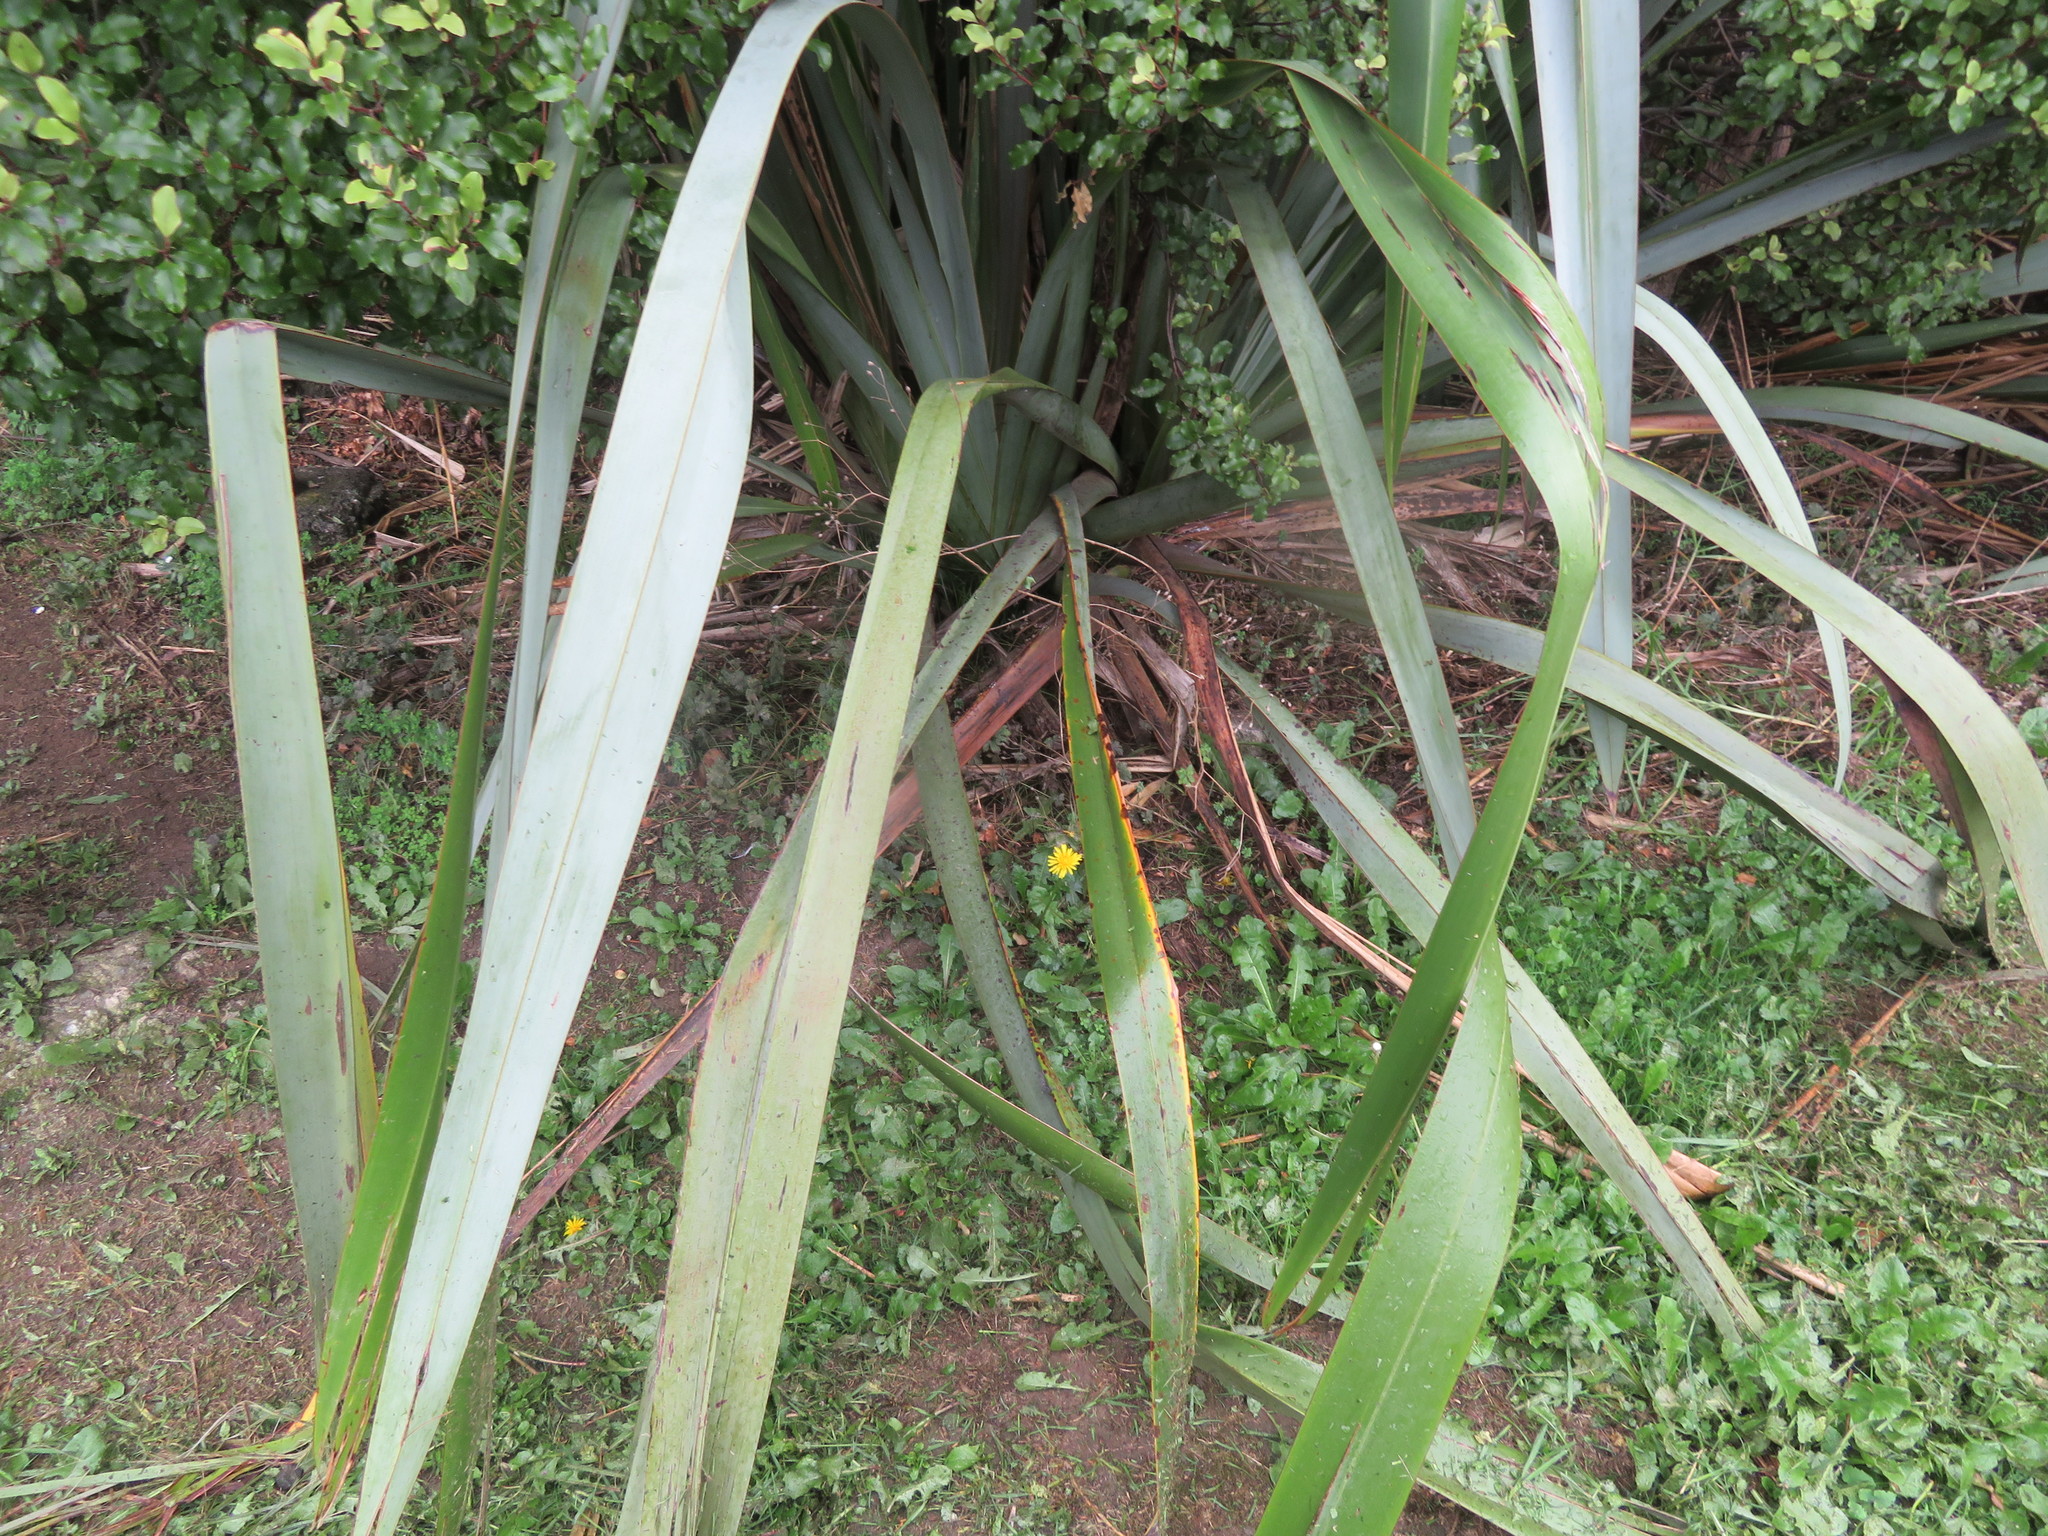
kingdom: Plantae
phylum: Tracheophyta
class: Magnoliopsida
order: Asterales
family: Asteraceae
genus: Taraxacum
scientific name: Taraxacum officinale
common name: Common dandelion
